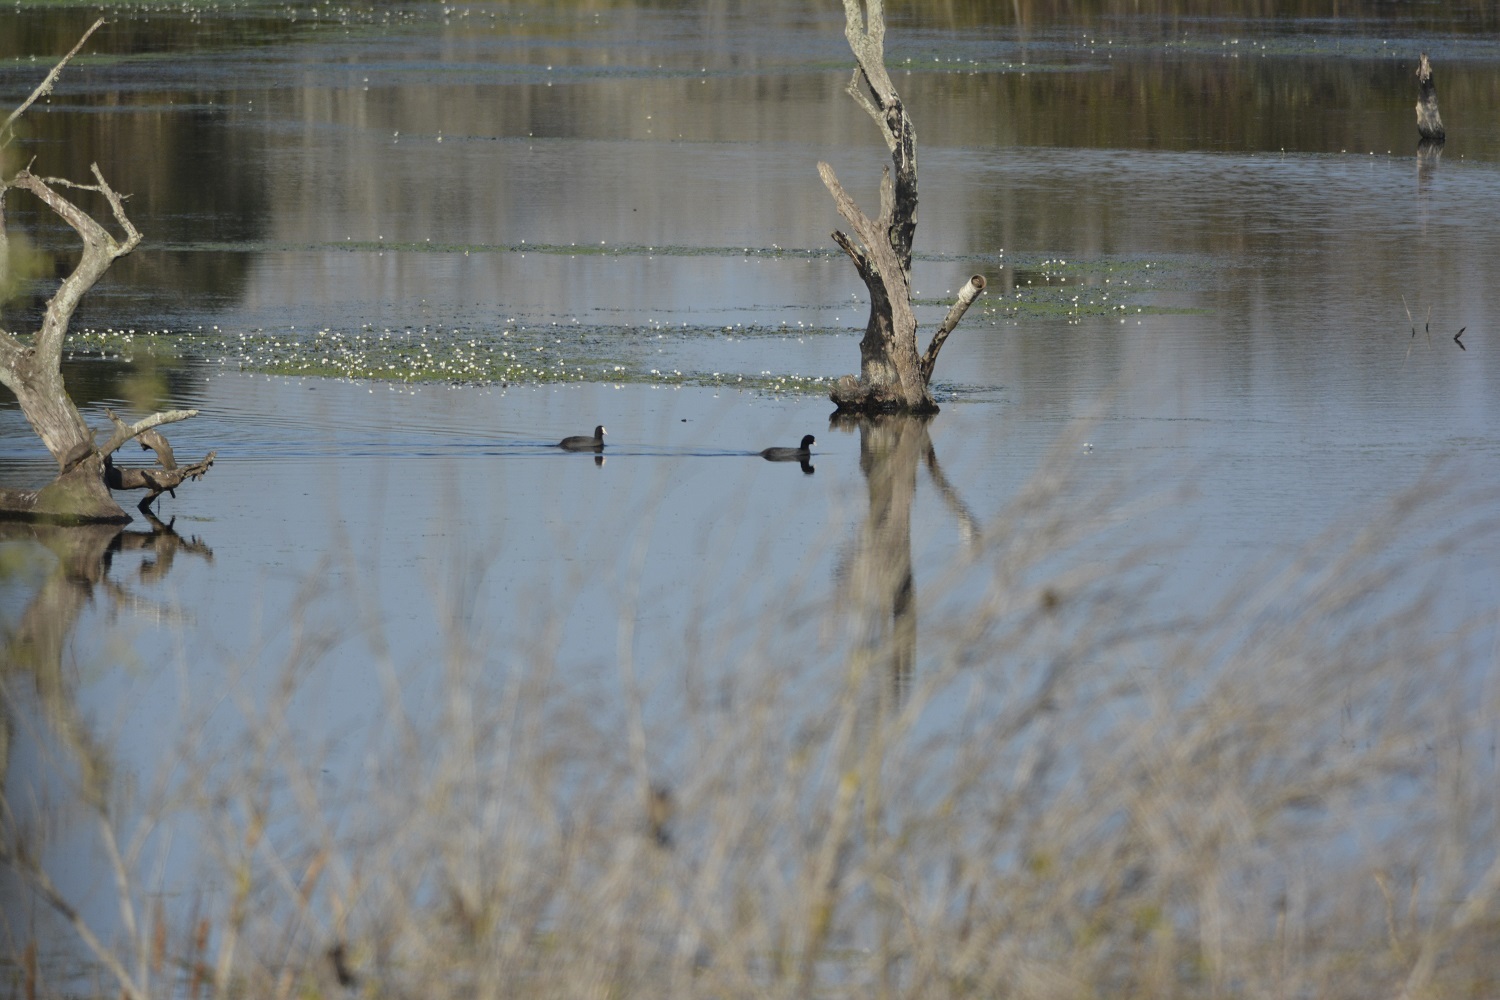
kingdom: Animalia
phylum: Chordata
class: Aves
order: Gruiformes
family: Rallidae
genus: Fulica
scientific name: Fulica atra
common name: Eurasian coot
